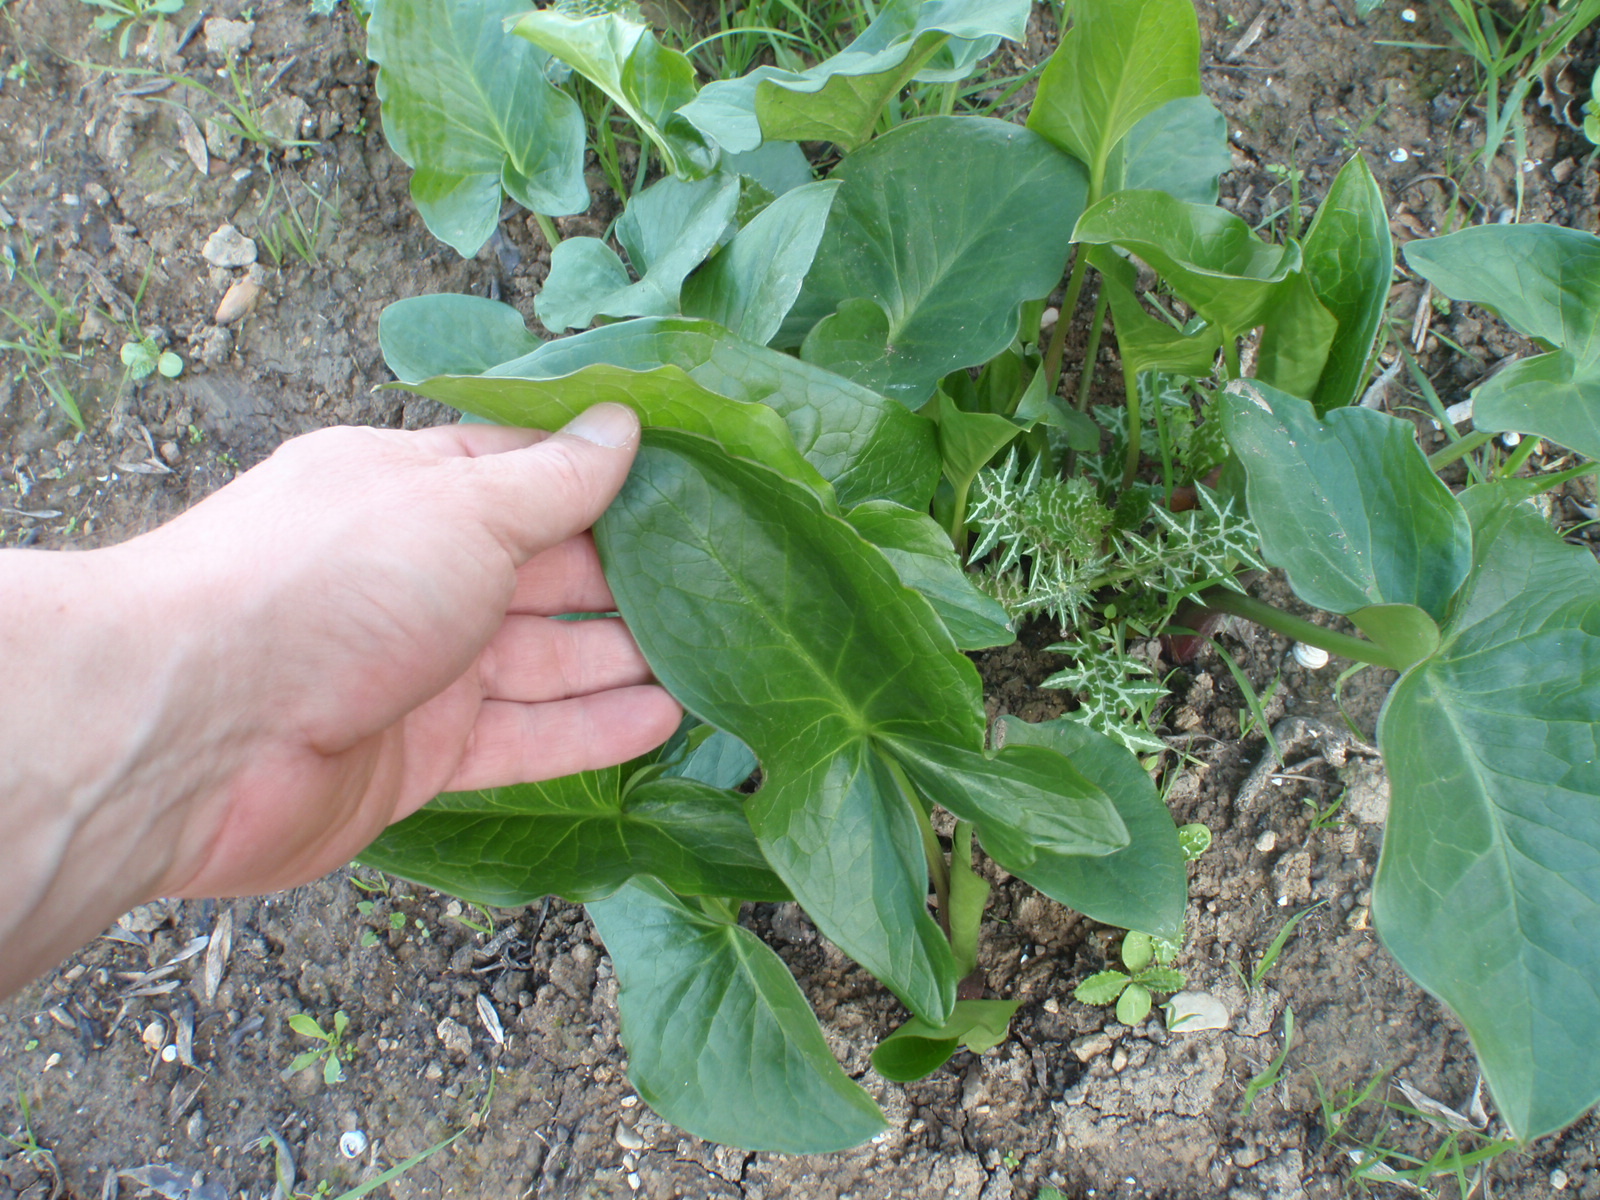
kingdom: Plantae
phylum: Tracheophyta
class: Liliopsida
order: Alismatales
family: Araceae
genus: Arum
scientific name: Arum italicum
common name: Italian lords-and-ladies
